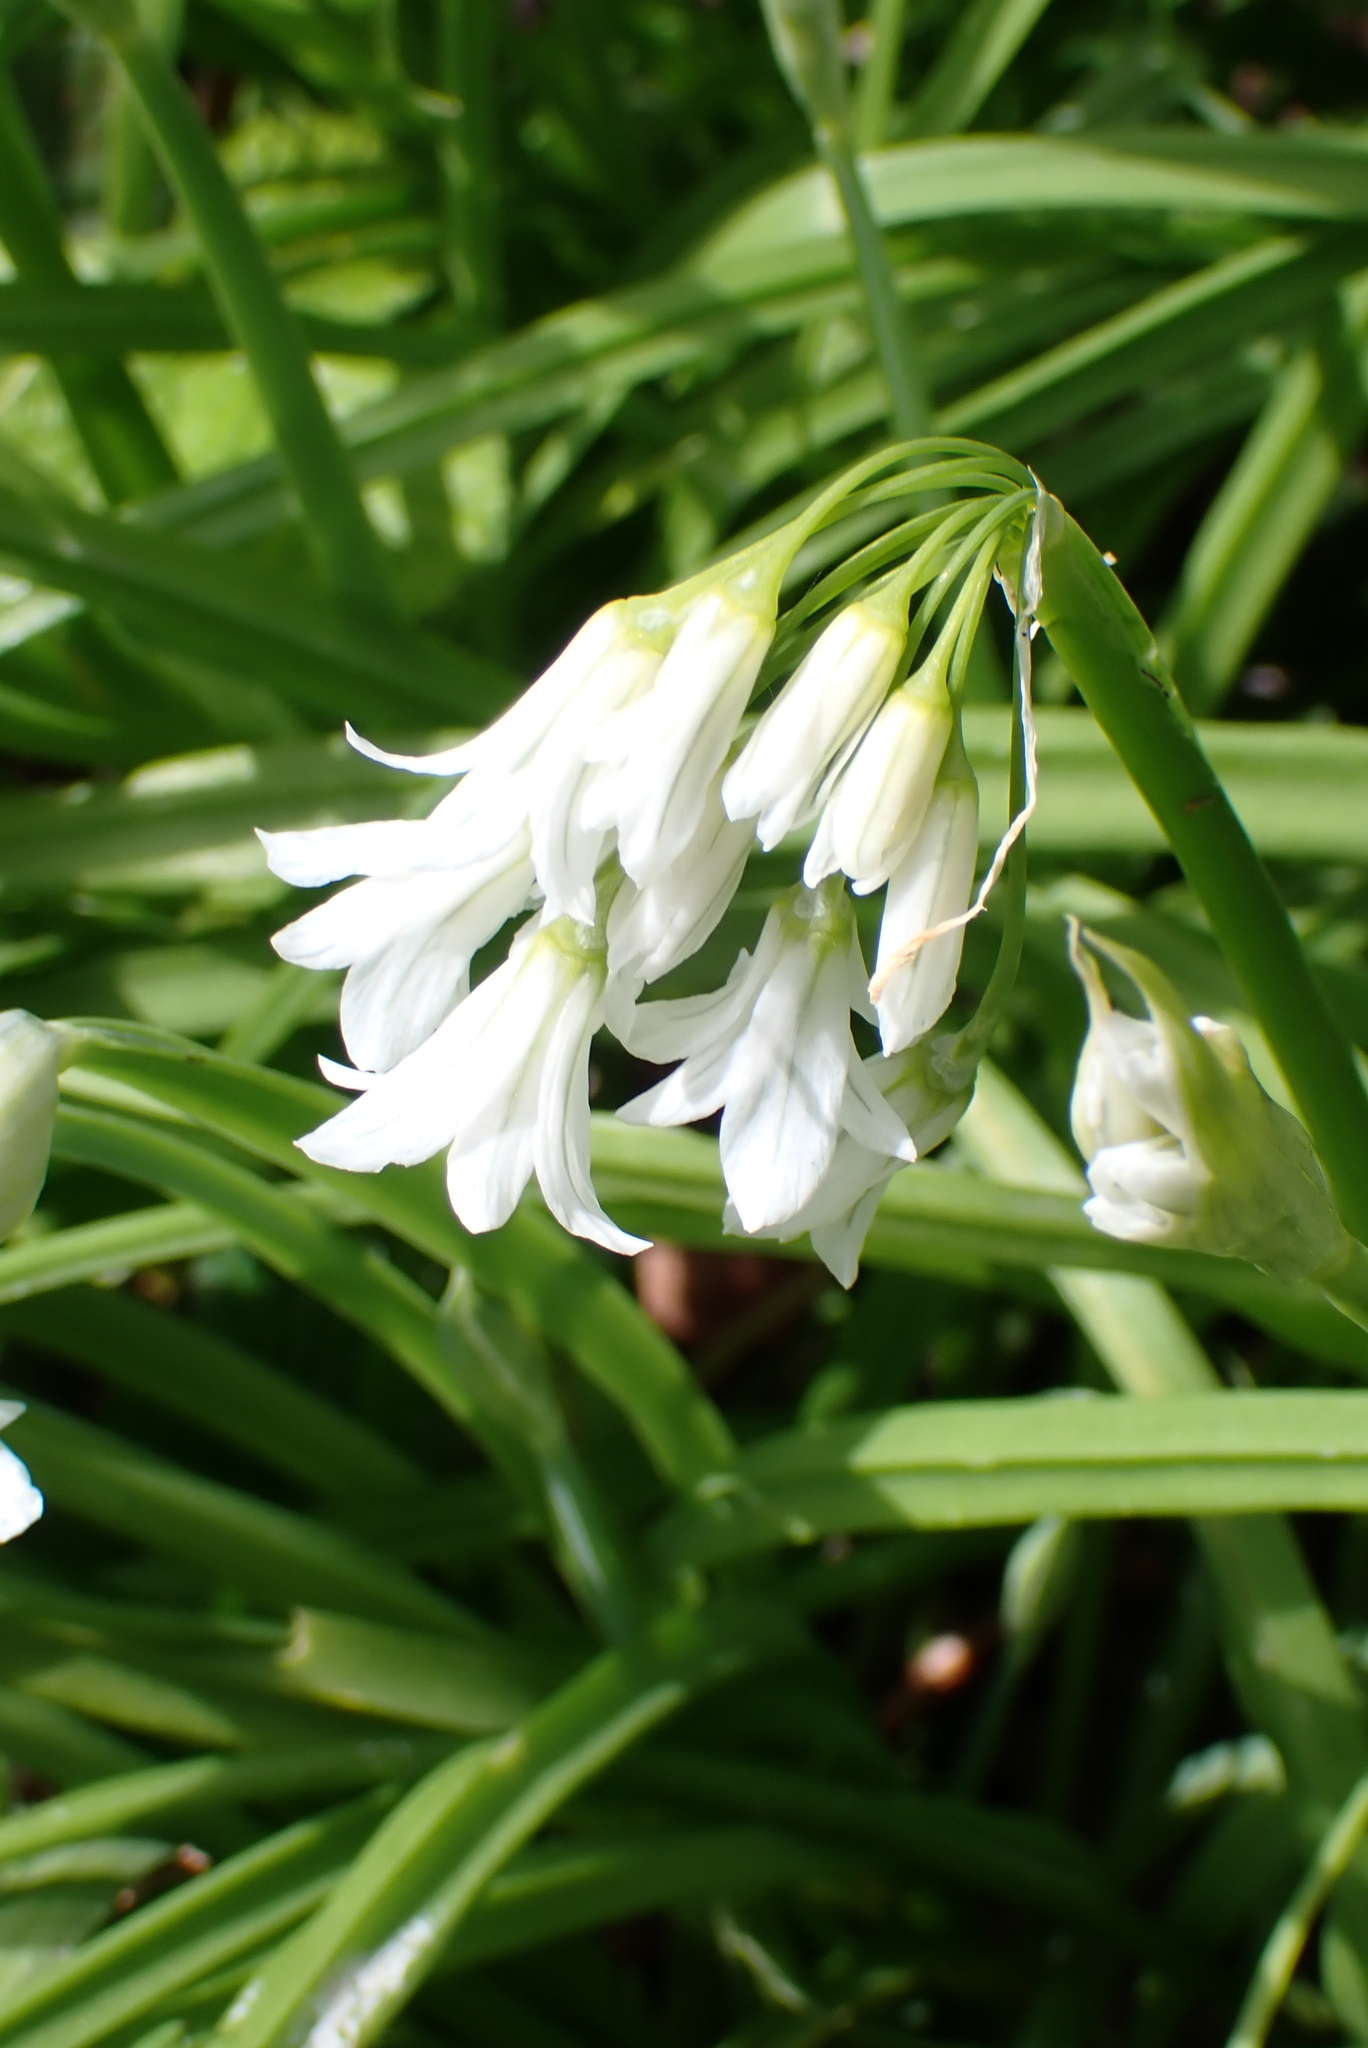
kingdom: Plantae
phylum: Tracheophyta
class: Liliopsida
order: Asparagales
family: Amaryllidaceae
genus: Allium
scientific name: Allium triquetrum
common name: Three-cornered garlic
